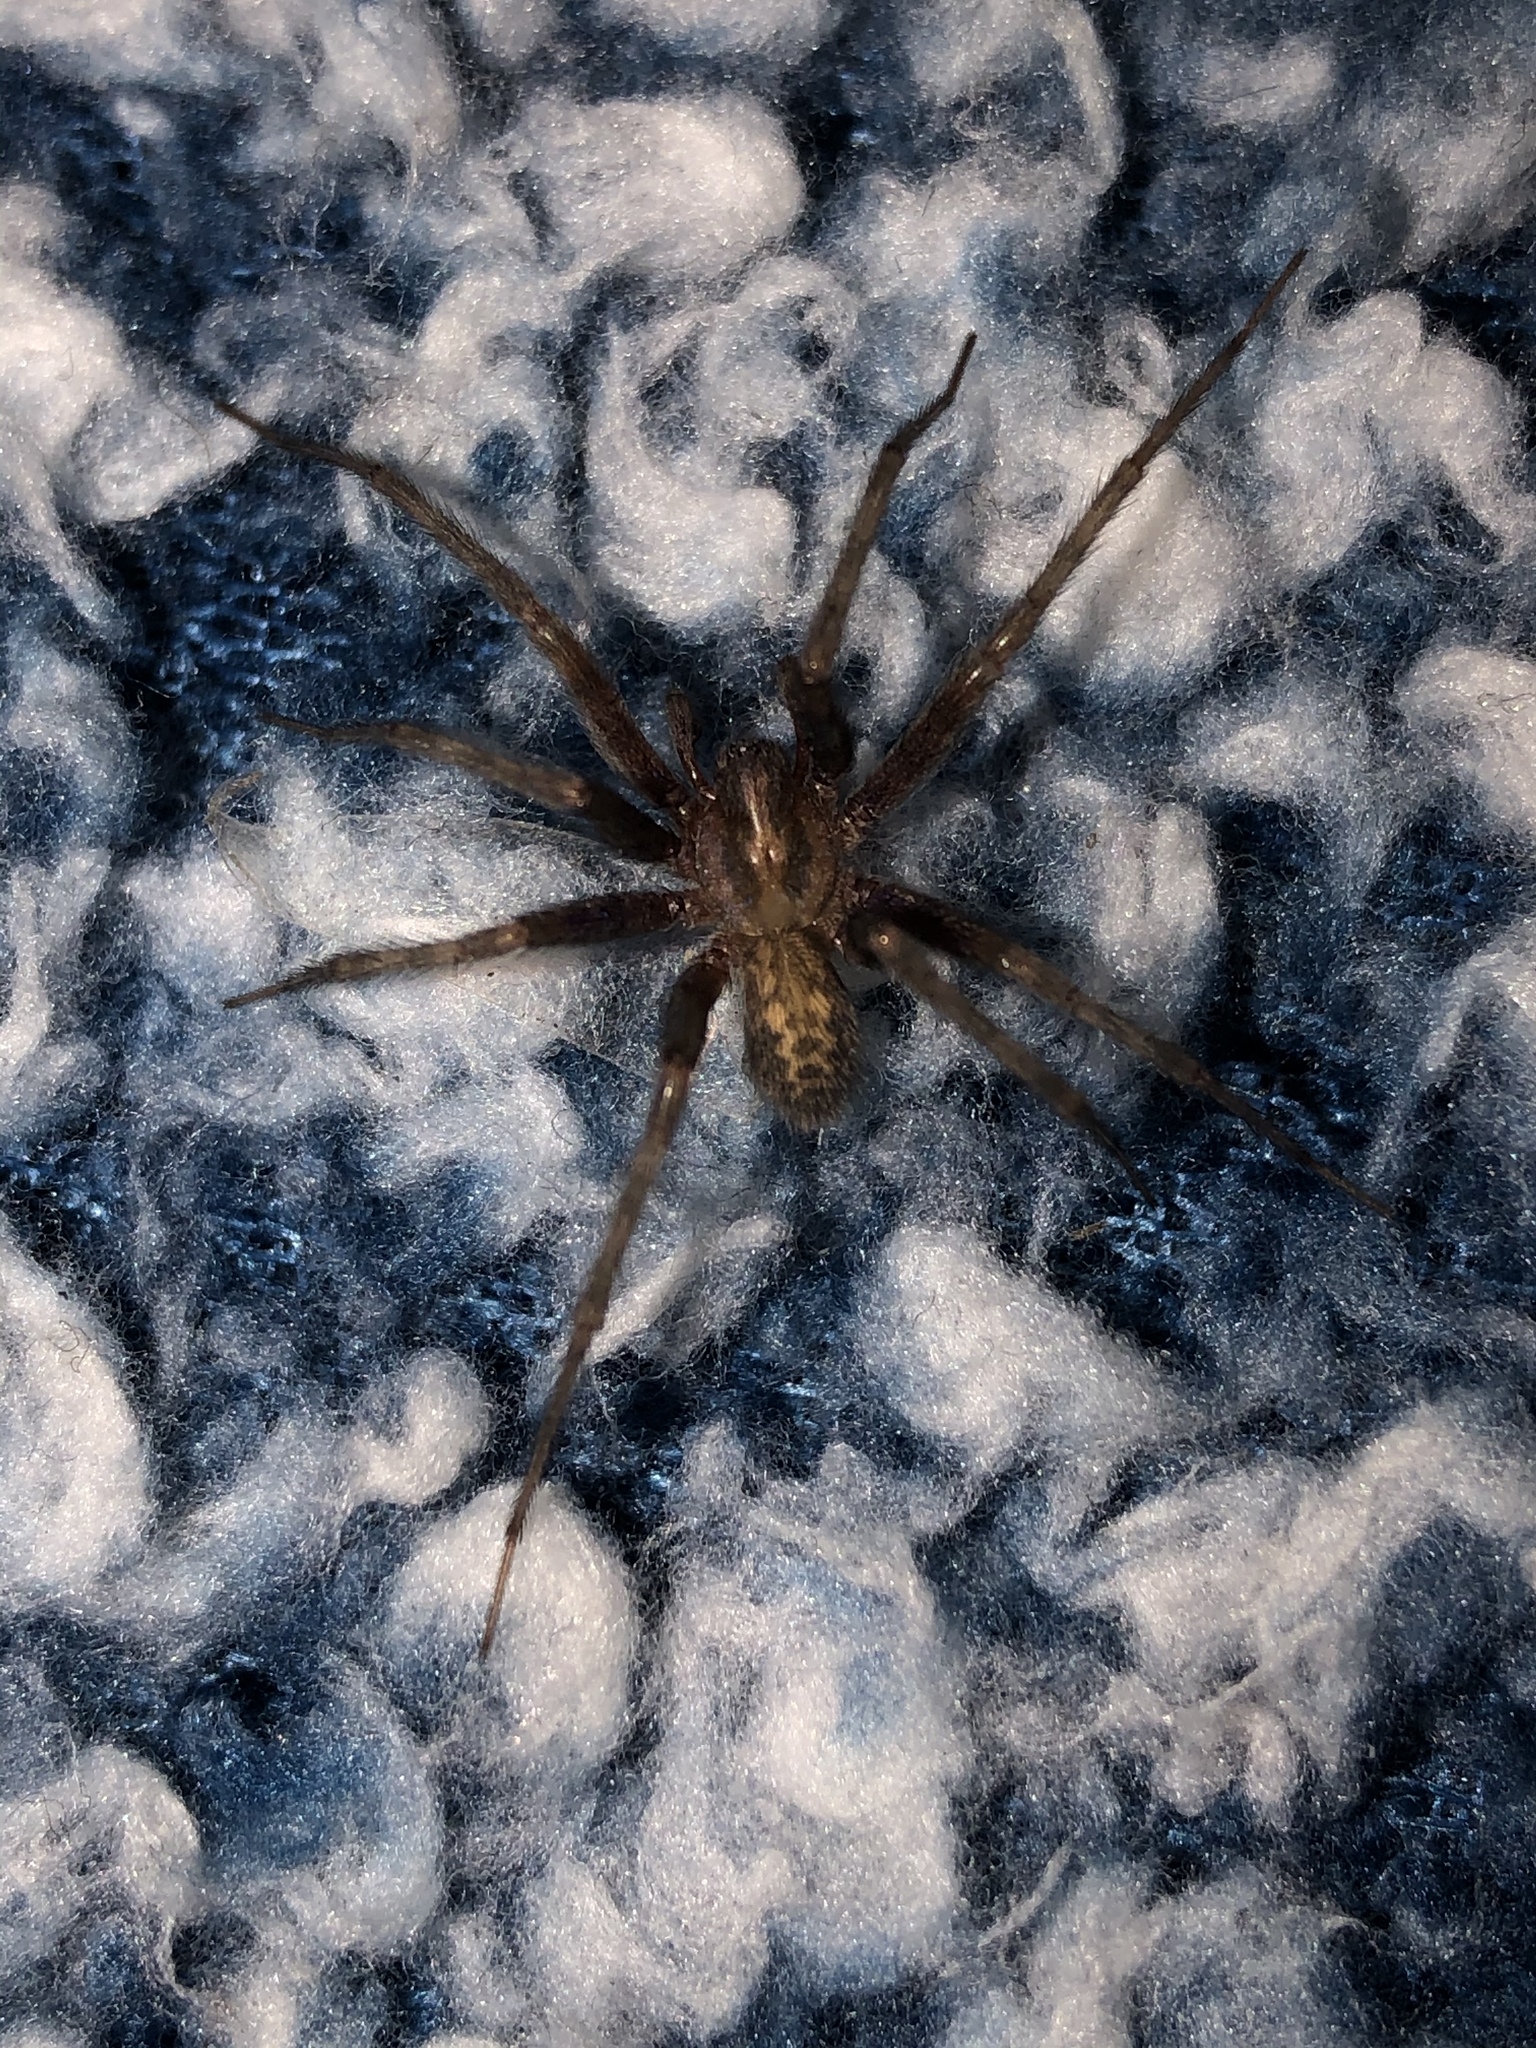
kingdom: Animalia
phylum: Arthropoda
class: Arachnida
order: Araneae
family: Agelenidae
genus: Tegenaria
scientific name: Tegenaria domestica
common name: Barn funnel weaver
